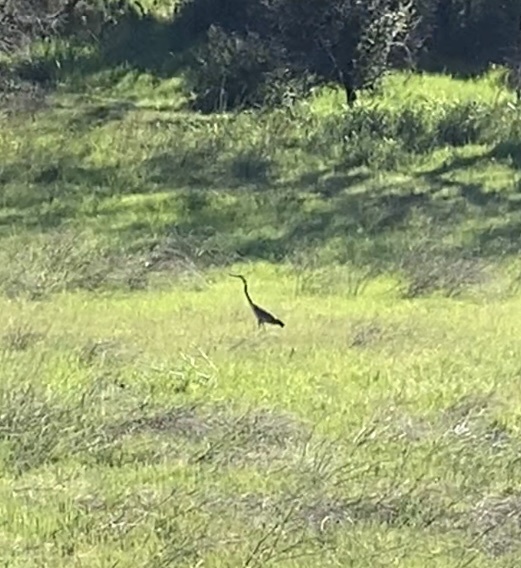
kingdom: Animalia
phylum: Chordata
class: Aves
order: Pelecaniformes
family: Ardeidae
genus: Ardea
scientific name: Ardea herodias
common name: Great blue heron
